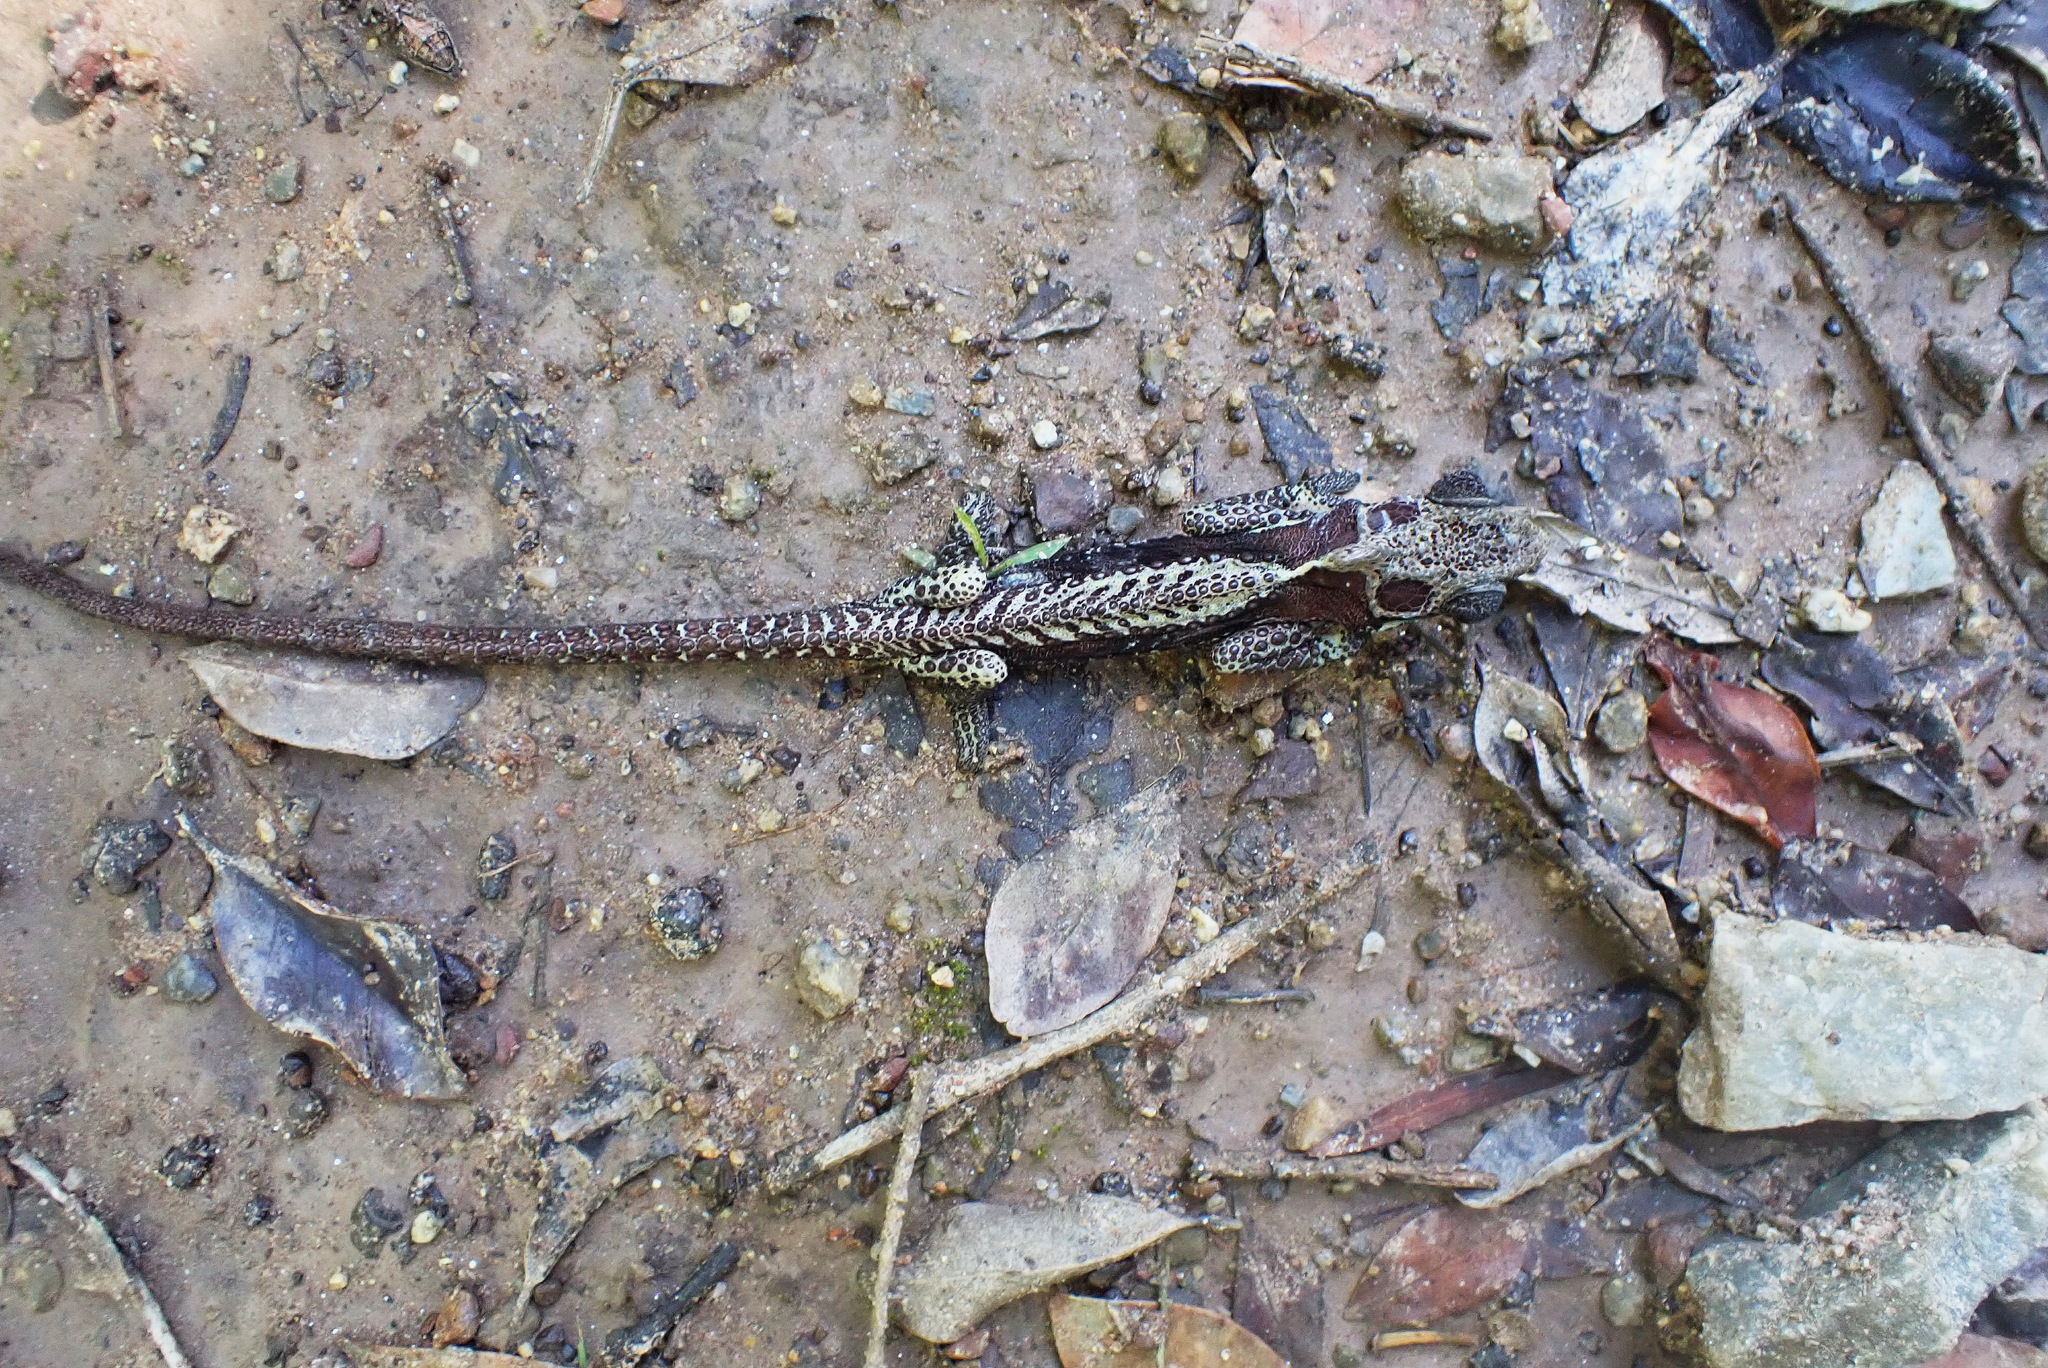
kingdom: Animalia
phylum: Chordata
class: Squamata
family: Chamaeleonidae
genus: Bradypodion
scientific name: Bradypodion damaranum
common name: Knysna dwarf chameleon
